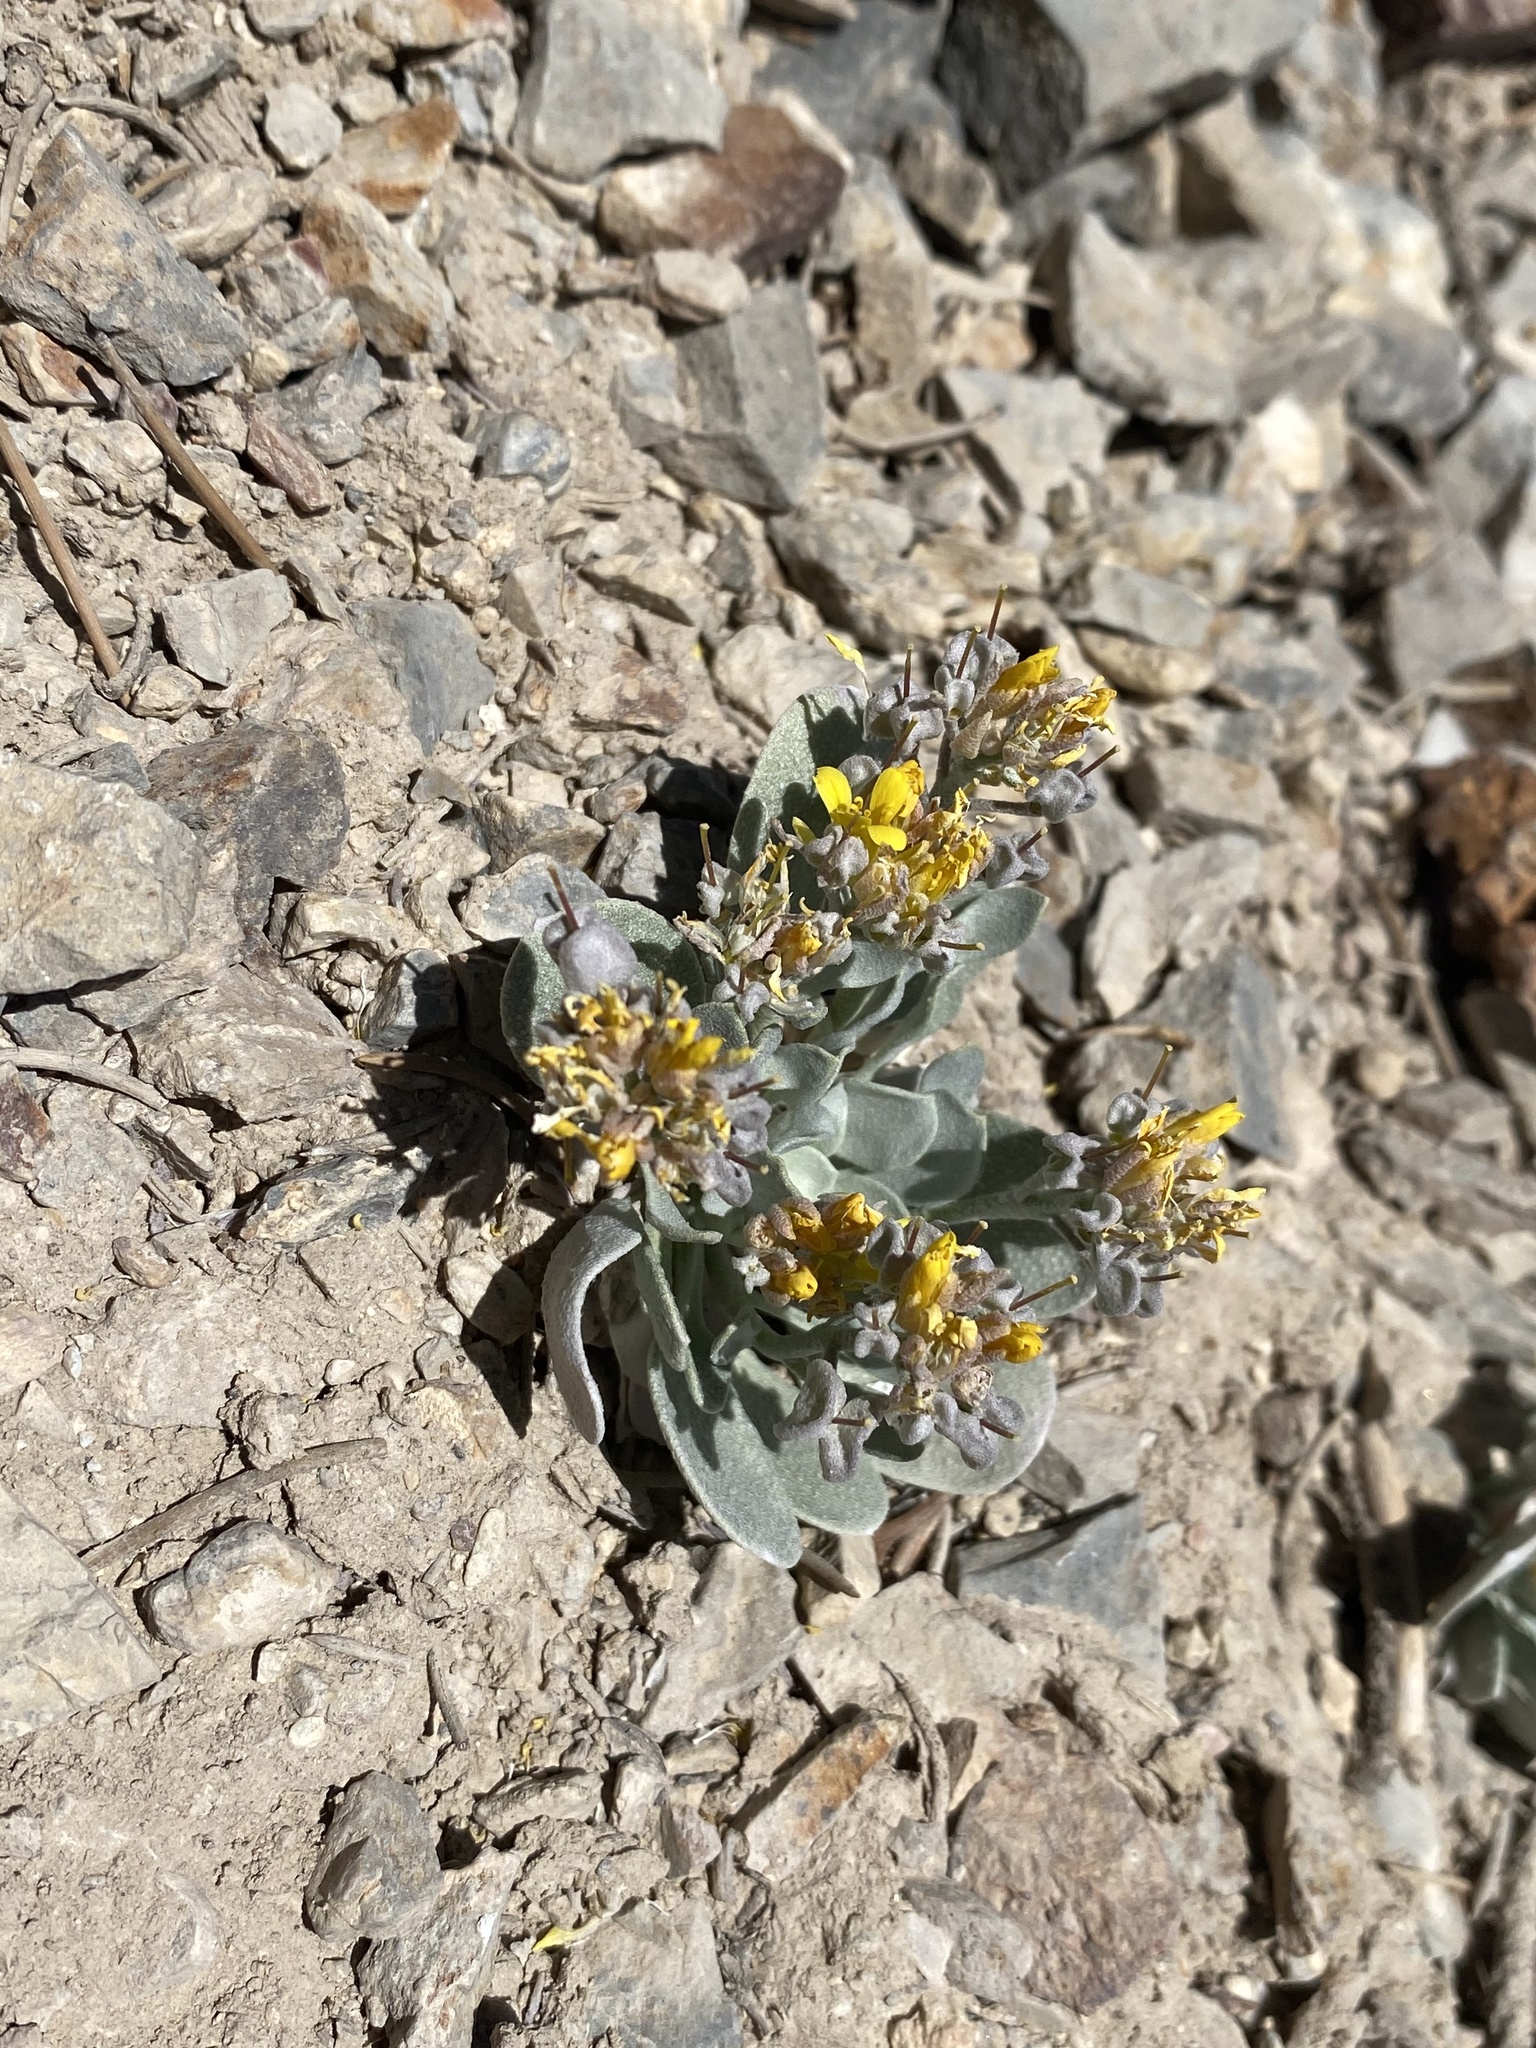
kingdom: Plantae
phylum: Tracheophyta
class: Magnoliopsida
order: Brassicales
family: Brassicaceae
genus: Physaria
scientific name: Physaria chambersii
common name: Chamber's twinpod
